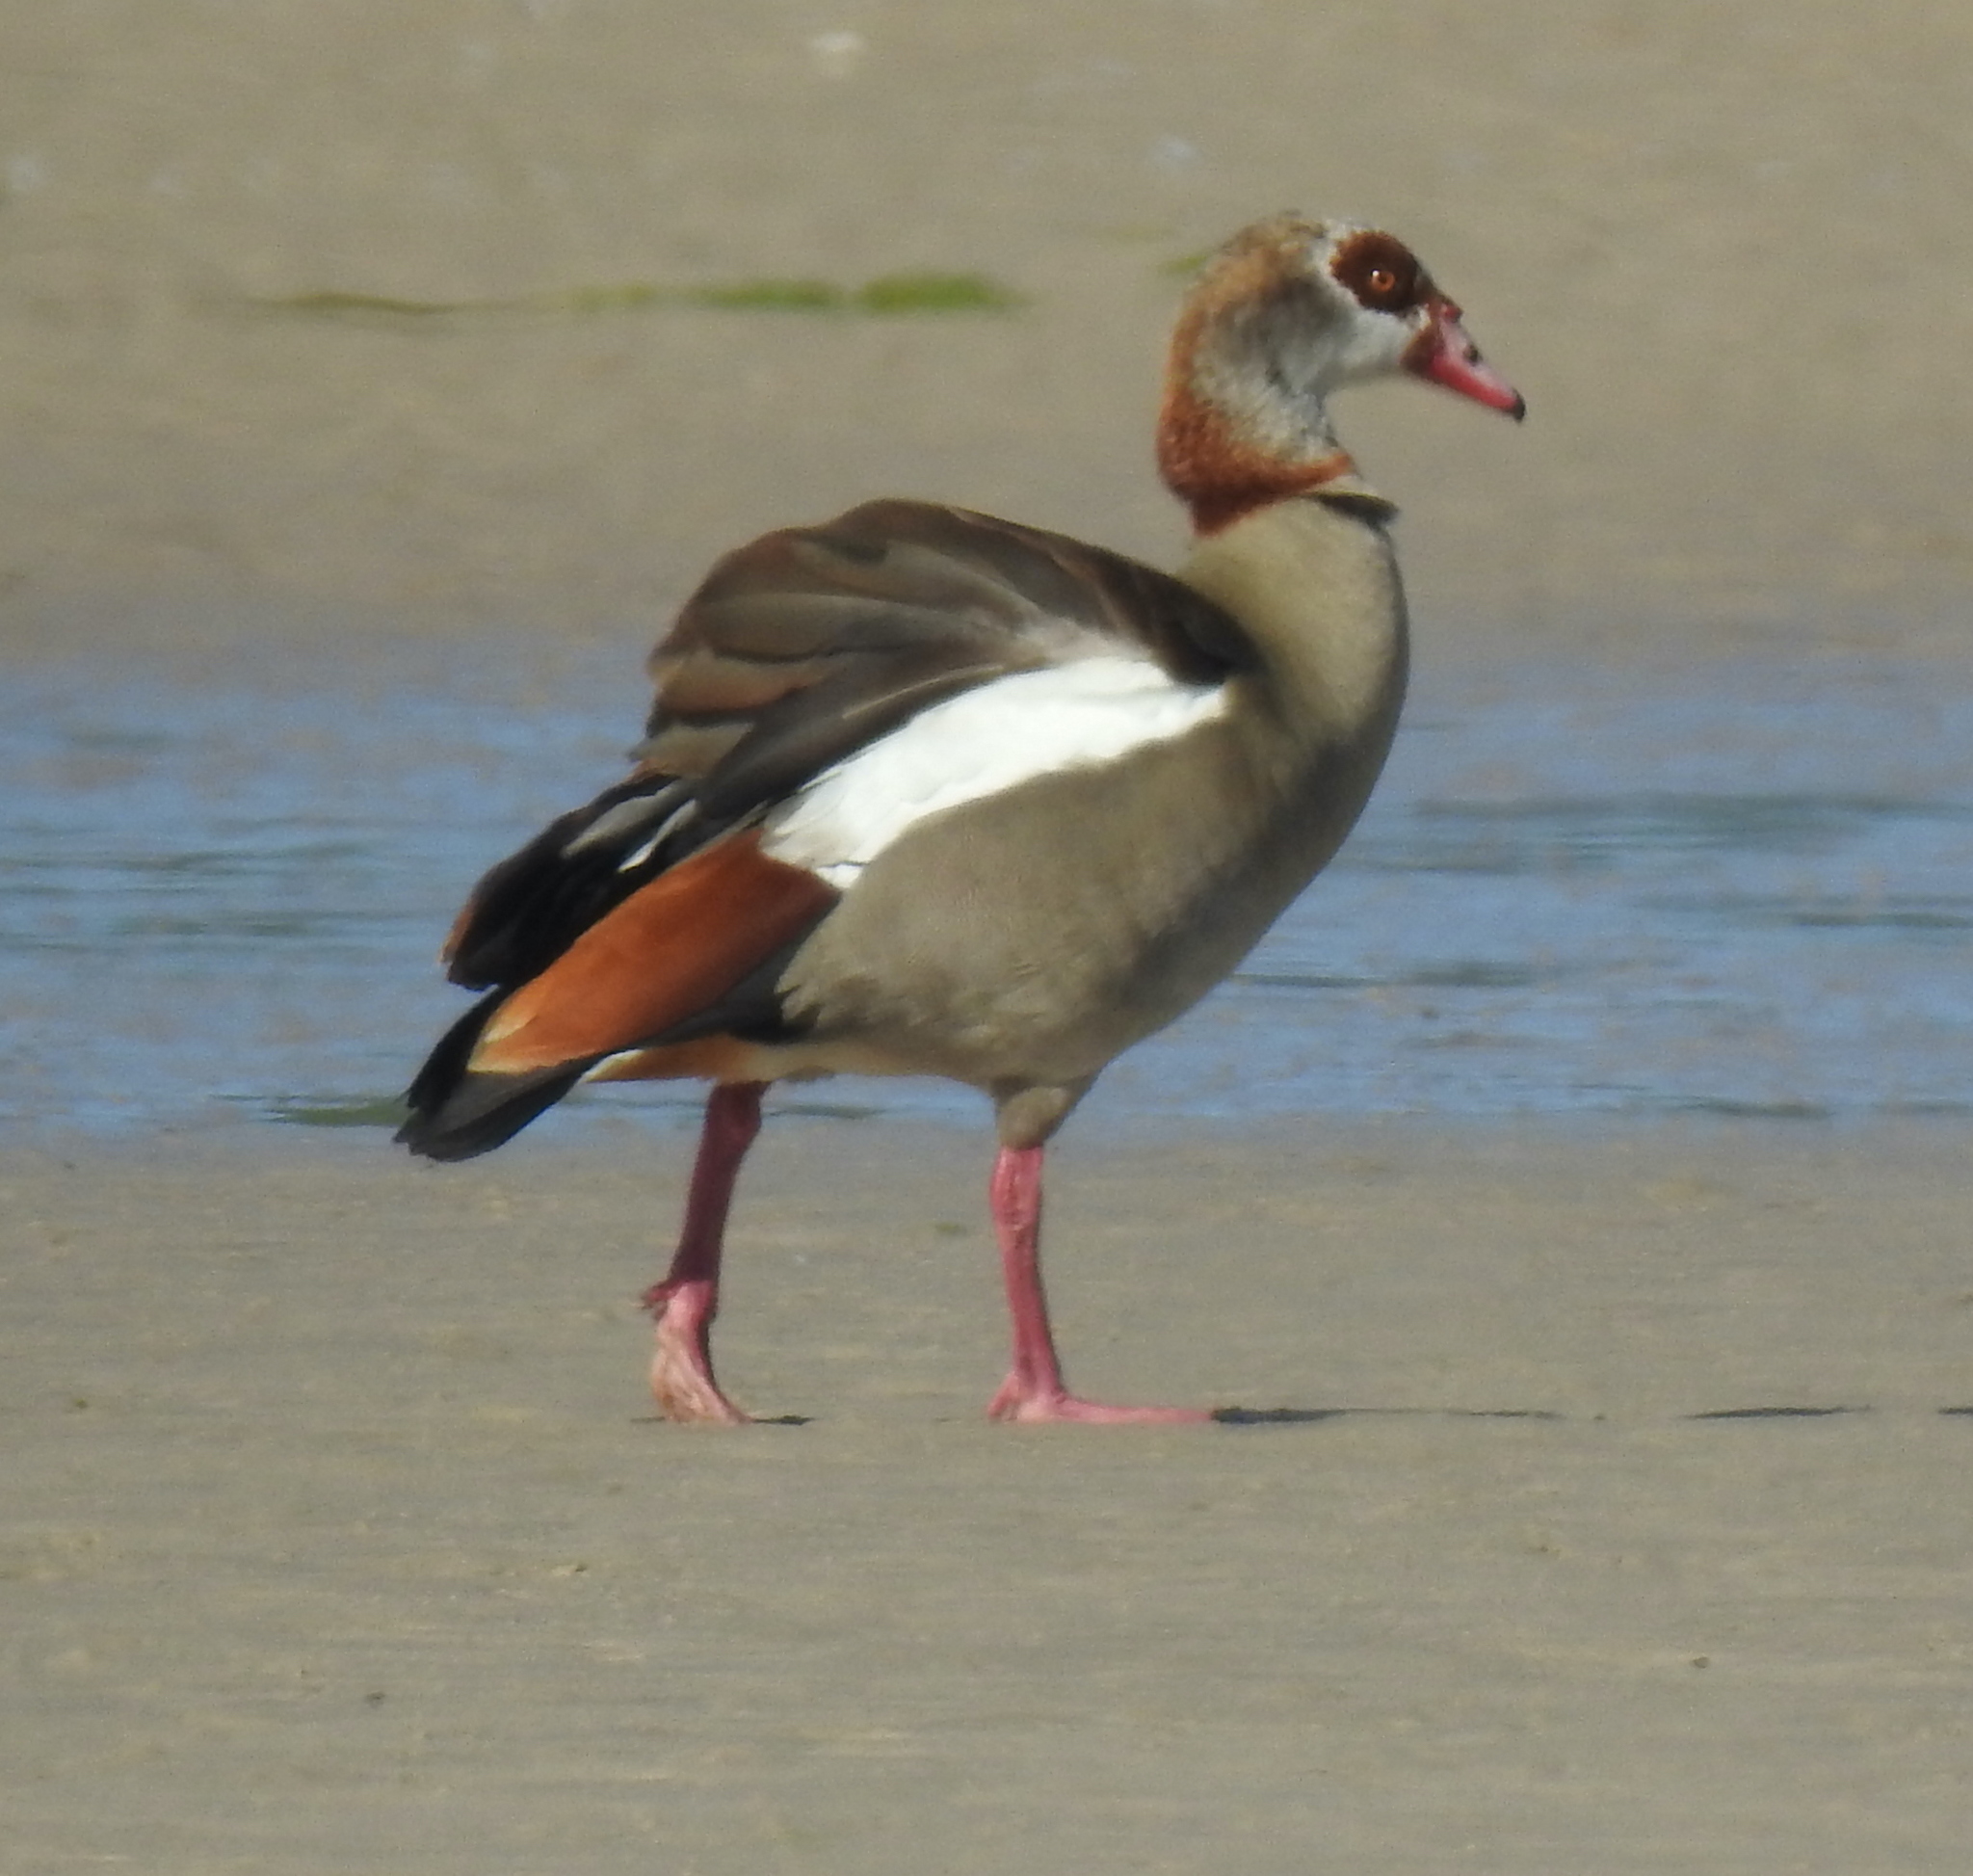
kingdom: Animalia
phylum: Chordata
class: Aves
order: Anseriformes
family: Anatidae
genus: Alopochen
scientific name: Alopochen aegyptiaca
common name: Egyptian goose
